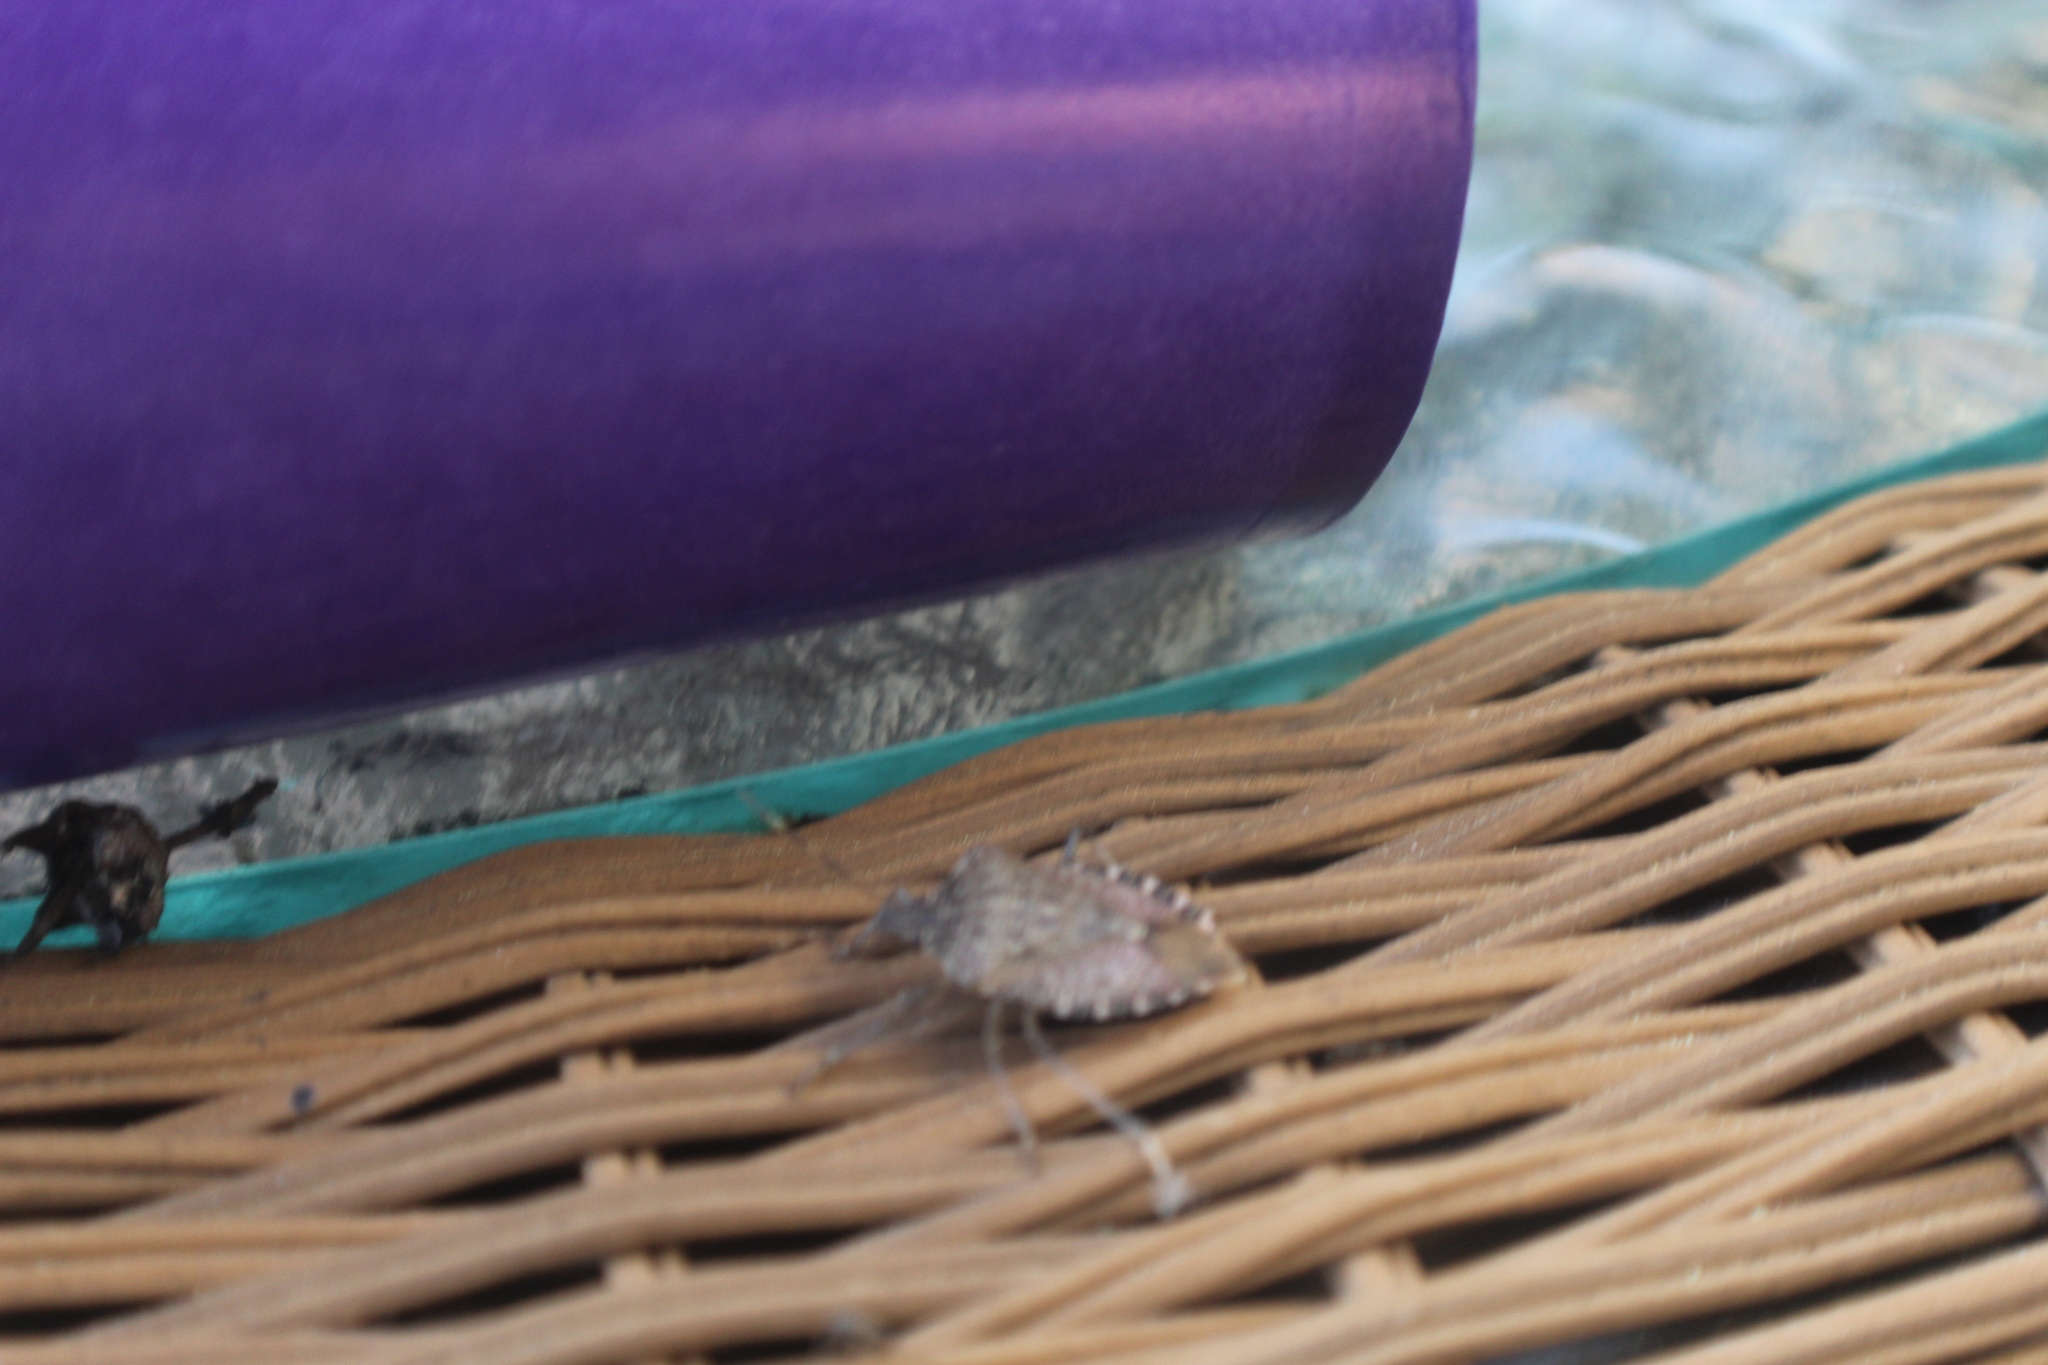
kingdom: Animalia
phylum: Arthropoda
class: Insecta
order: Hemiptera
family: Pentatomidae
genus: Halyomorpha
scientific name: Halyomorpha halys
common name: Brown marmorated stink bug
